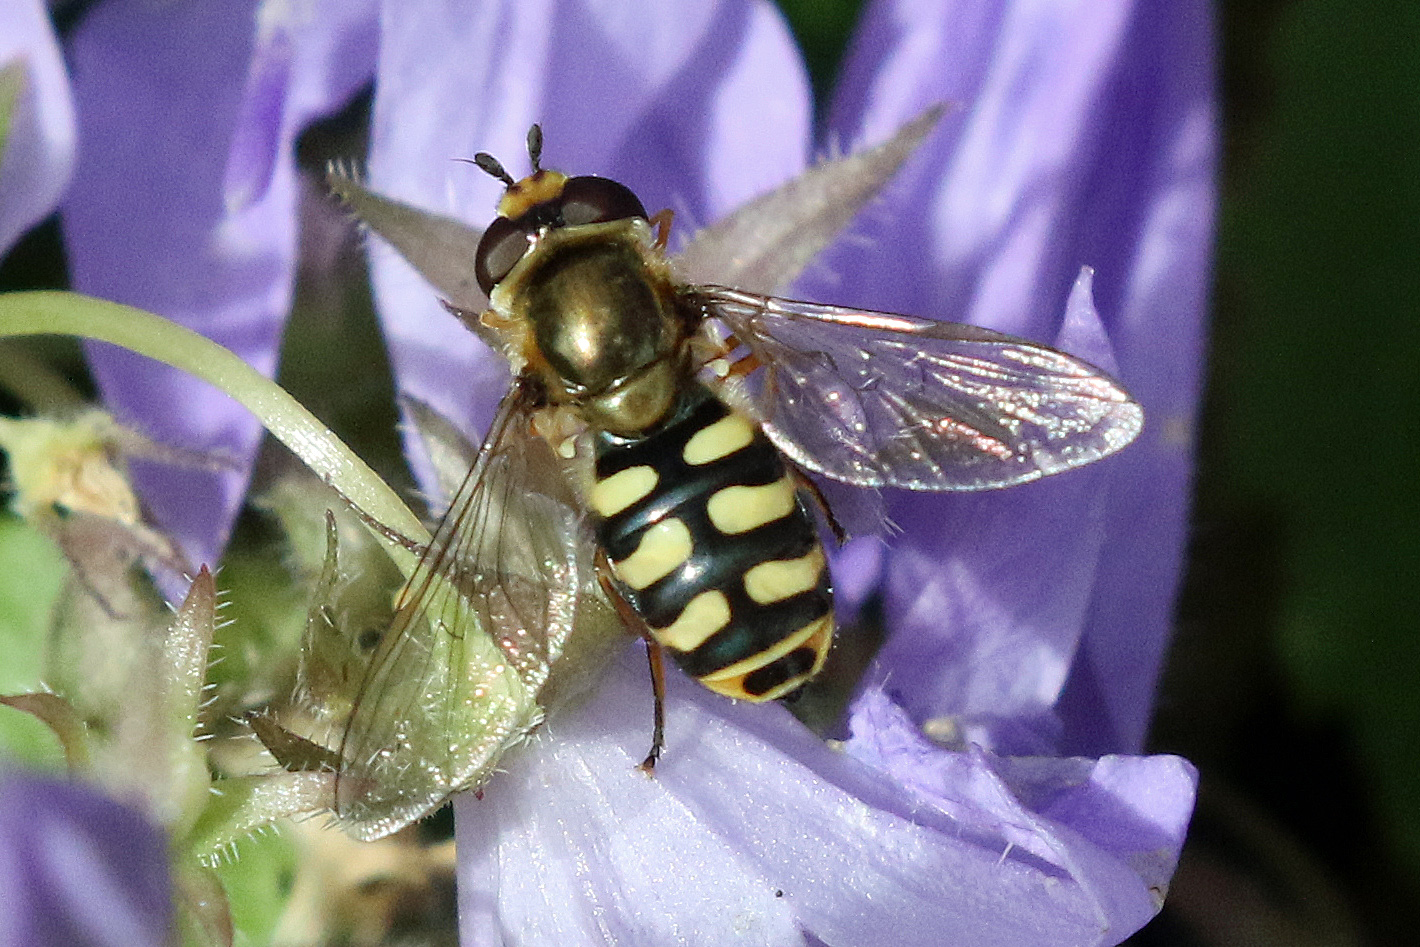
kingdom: Animalia
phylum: Arthropoda
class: Insecta
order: Diptera
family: Syrphidae
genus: Eupeodes
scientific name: Eupeodes corollae
